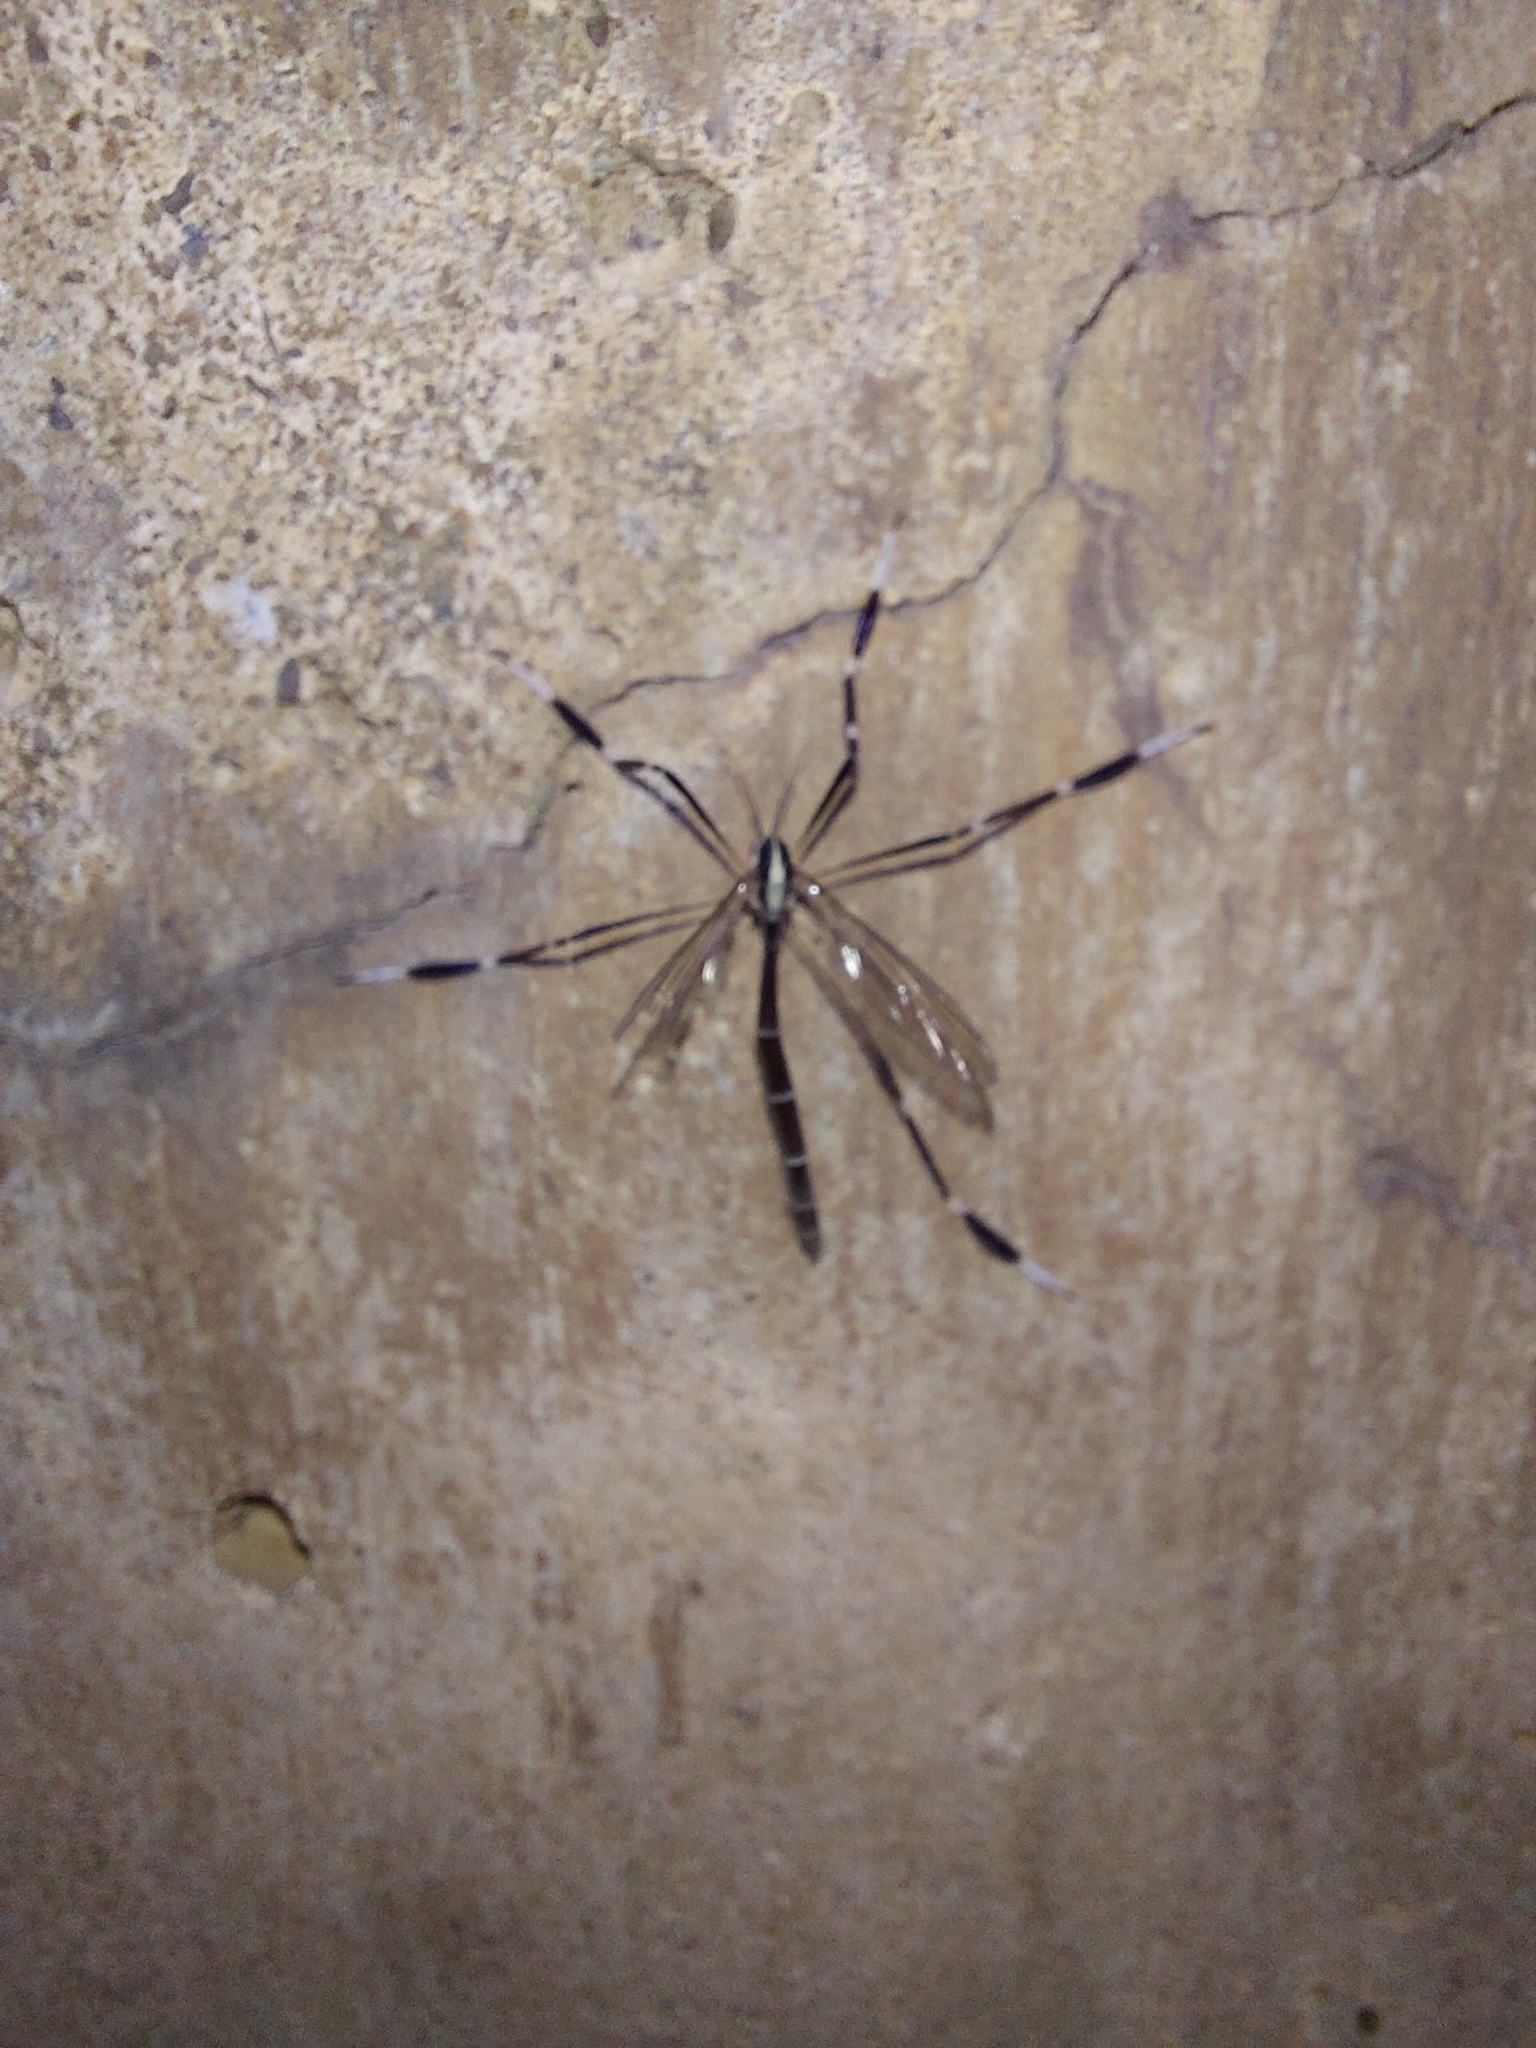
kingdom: Animalia
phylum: Arthropoda
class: Insecta
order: Diptera
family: Ptychopteridae
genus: Bittacomorpha
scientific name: Bittacomorpha clavipes
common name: Eastern phantom crane fly
